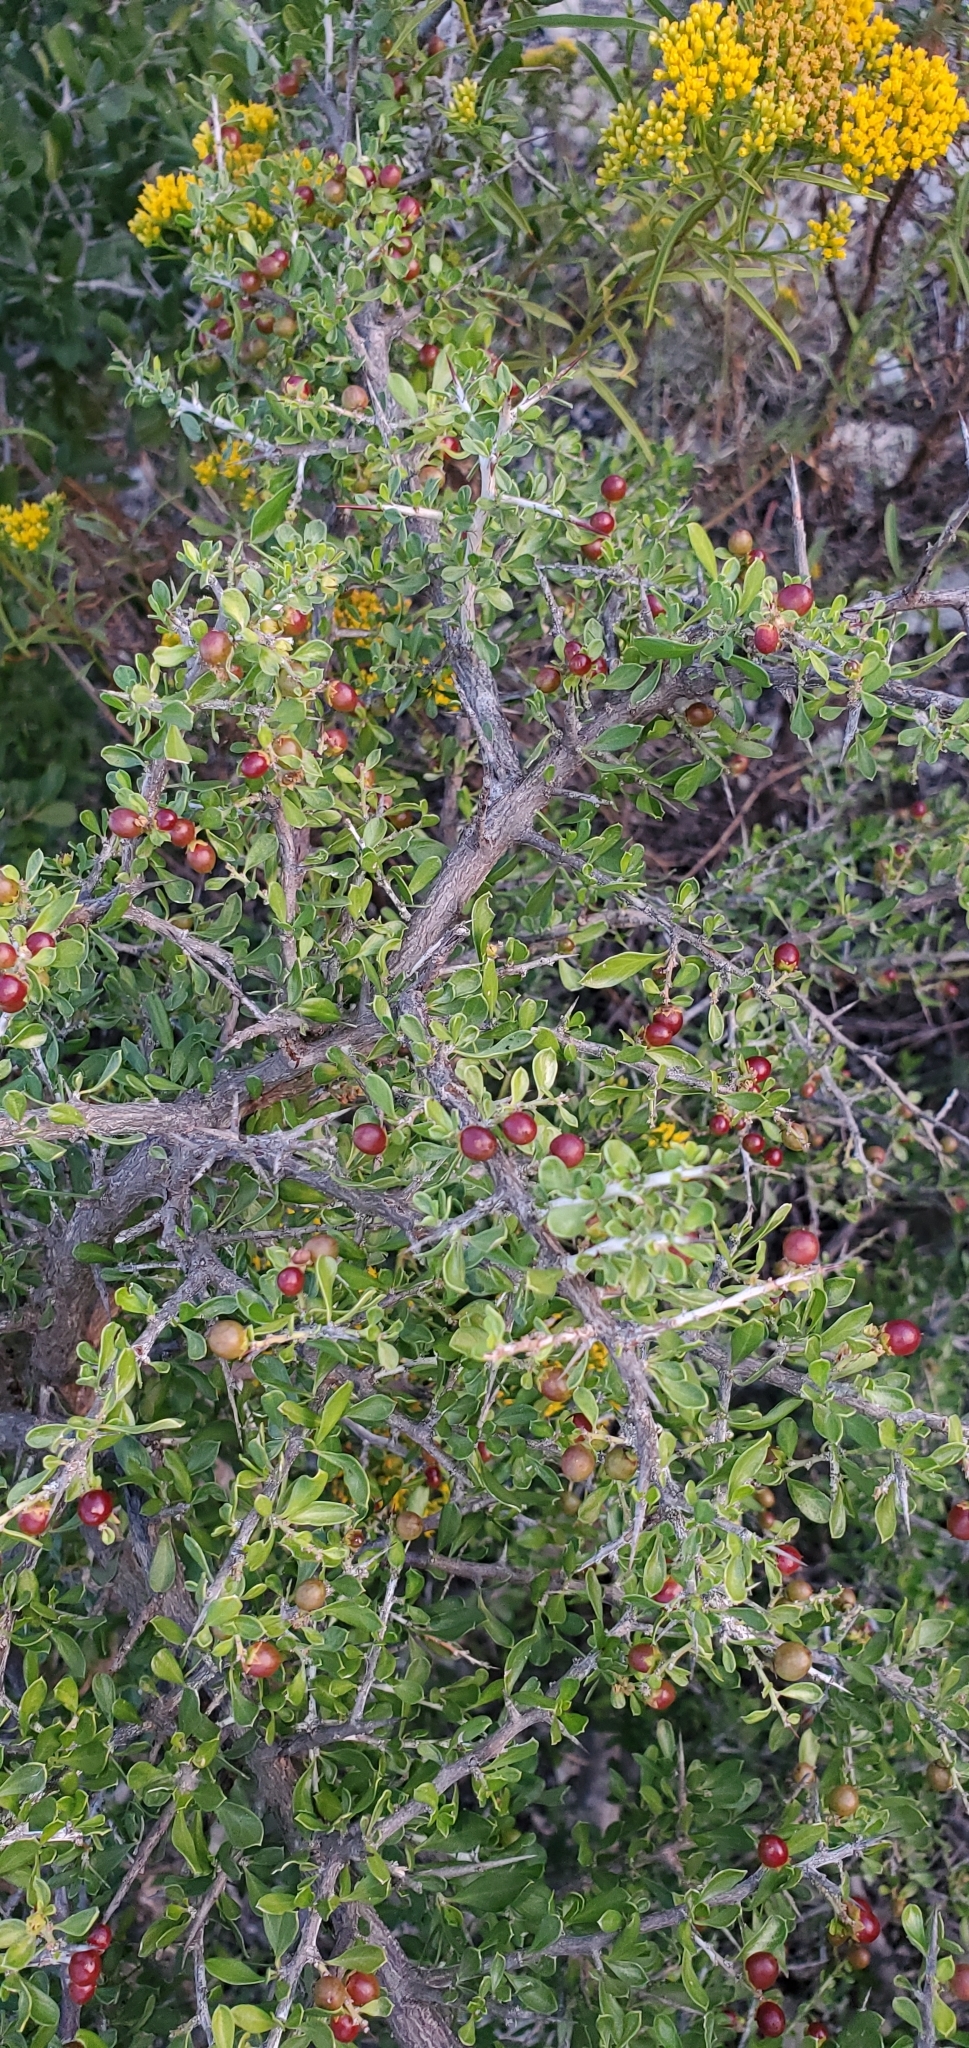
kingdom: Plantae
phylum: Tracheophyta
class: Magnoliopsida
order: Rosales
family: Rhamnaceae
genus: Condalia
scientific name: Condalia viridis
